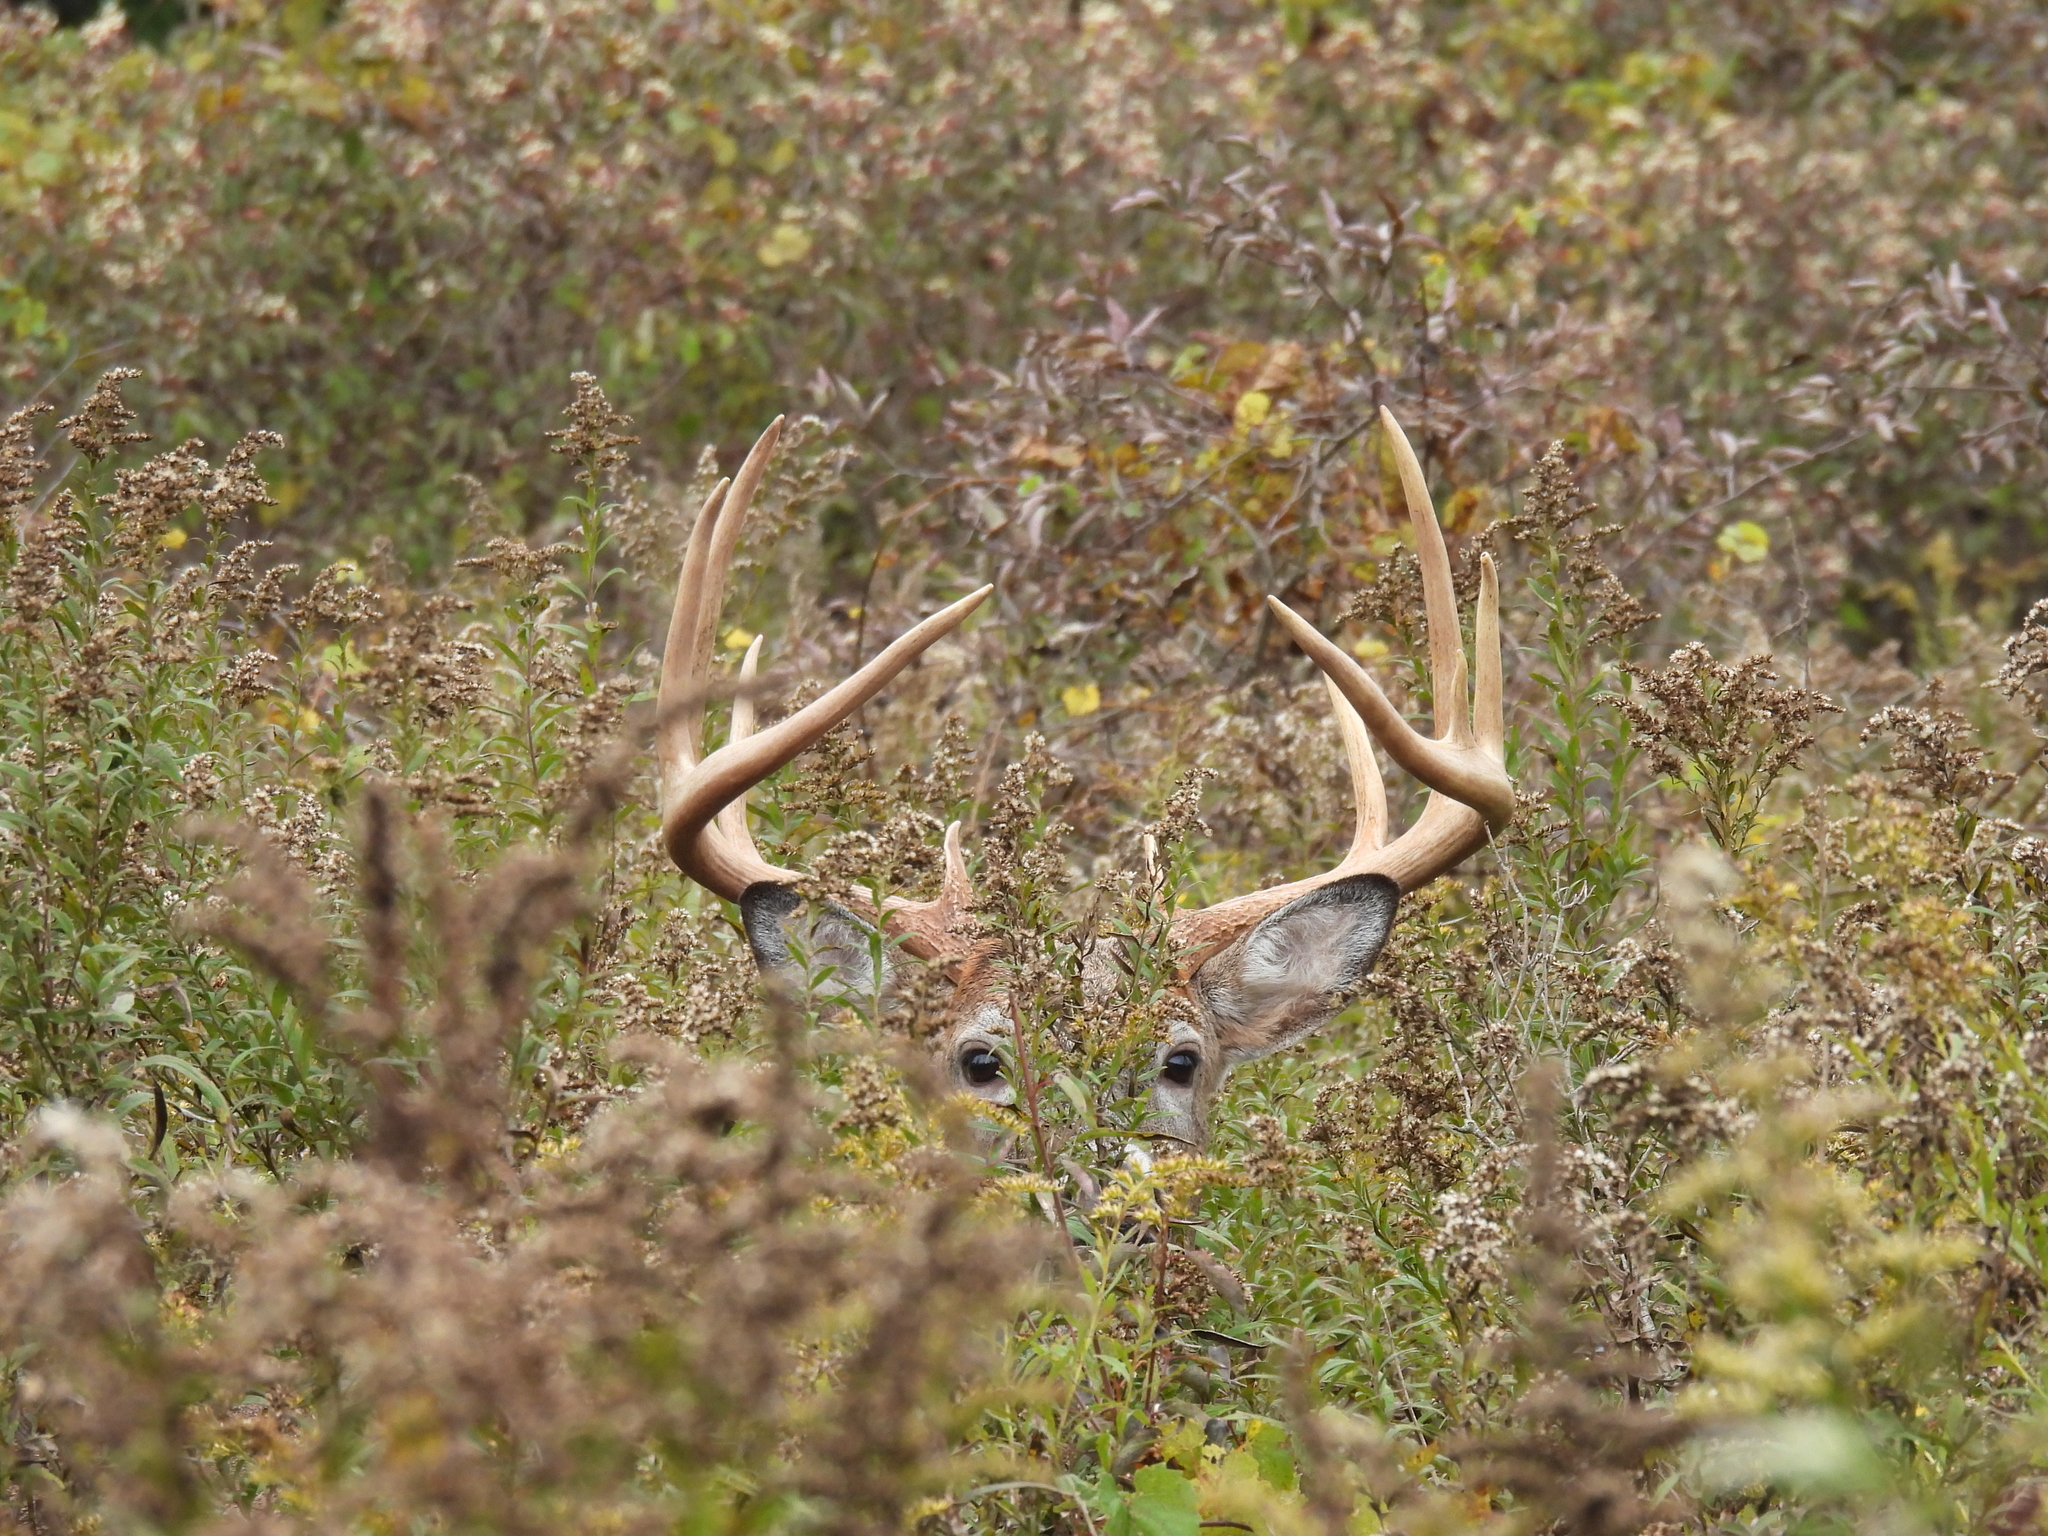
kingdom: Animalia
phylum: Chordata
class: Mammalia
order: Artiodactyla
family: Cervidae
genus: Odocoileus
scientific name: Odocoileus virginianus
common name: White-tailed deer
